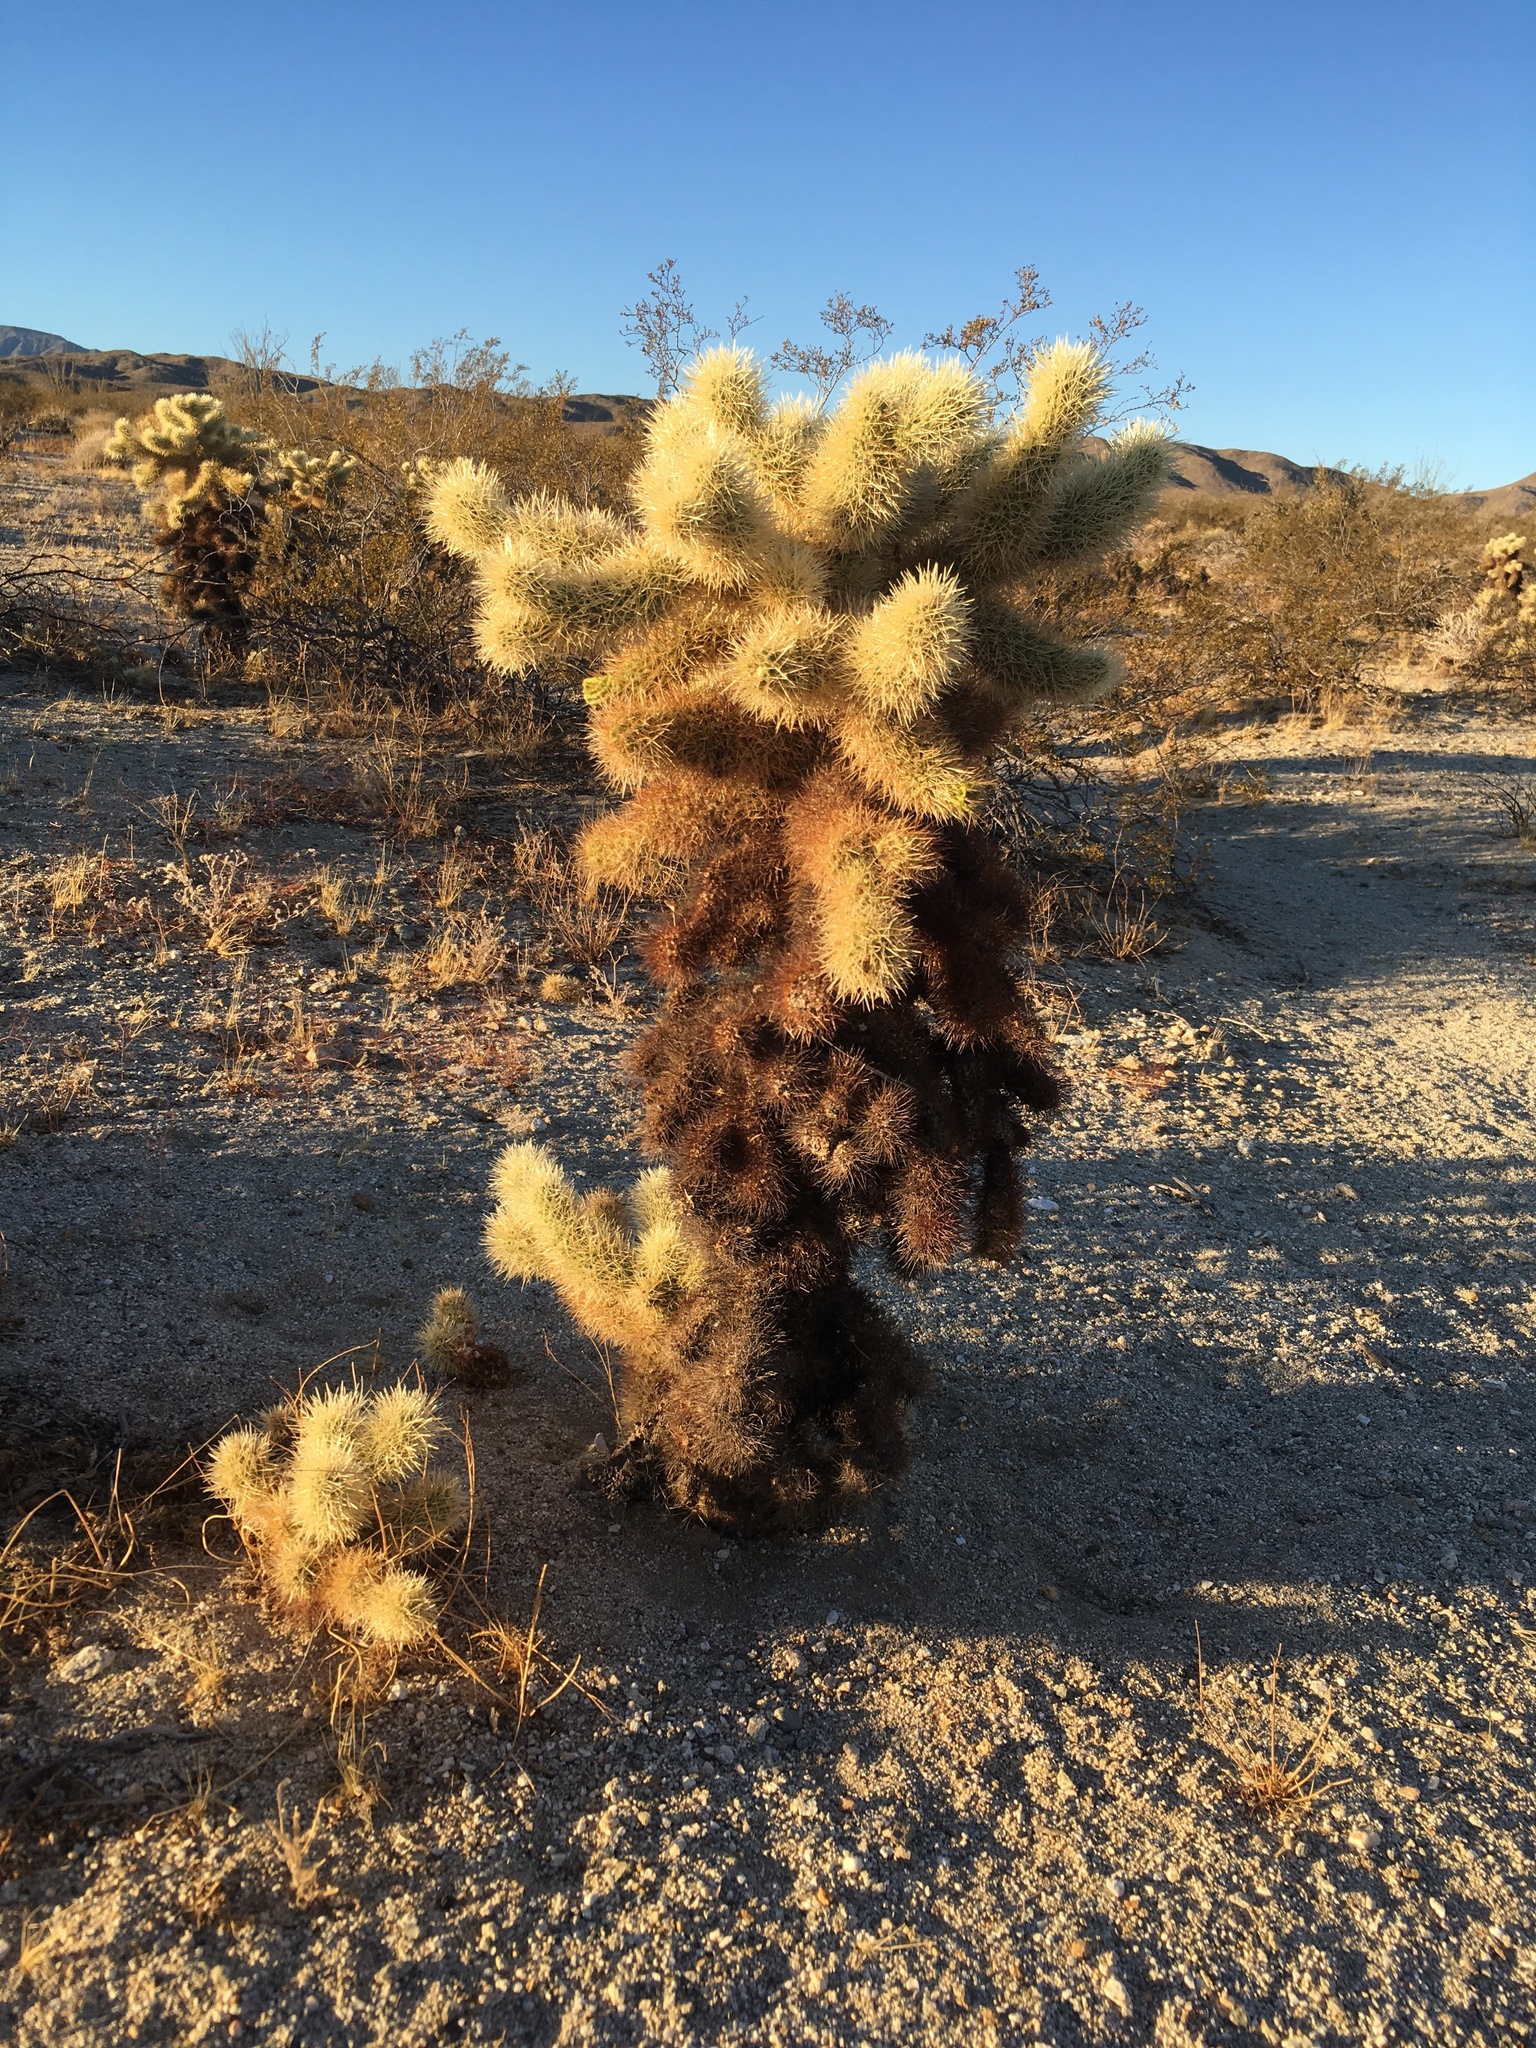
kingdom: Plantae
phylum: Tracheophyta
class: Magnoliopsida
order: Caryophyllales
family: Cactaceae
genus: Cylindropuntia
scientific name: Cylindropuntia fosbergii
